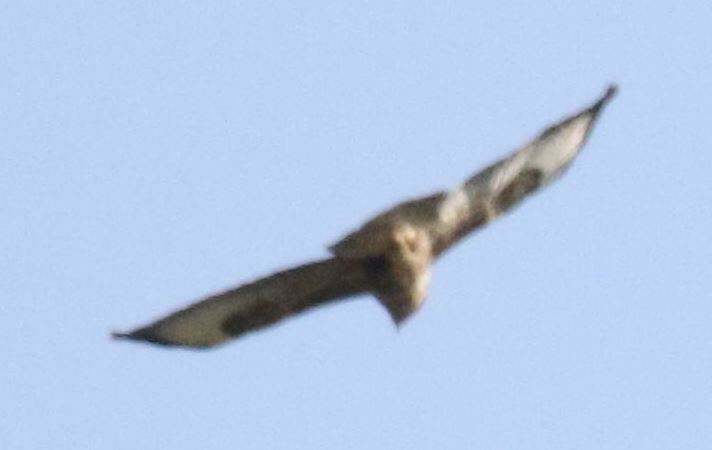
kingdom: Animalia
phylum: Chordata
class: Aves
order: Accipitriformes
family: Accipitridae
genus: Buteo
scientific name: Buteo buteo
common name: Common buzzard
